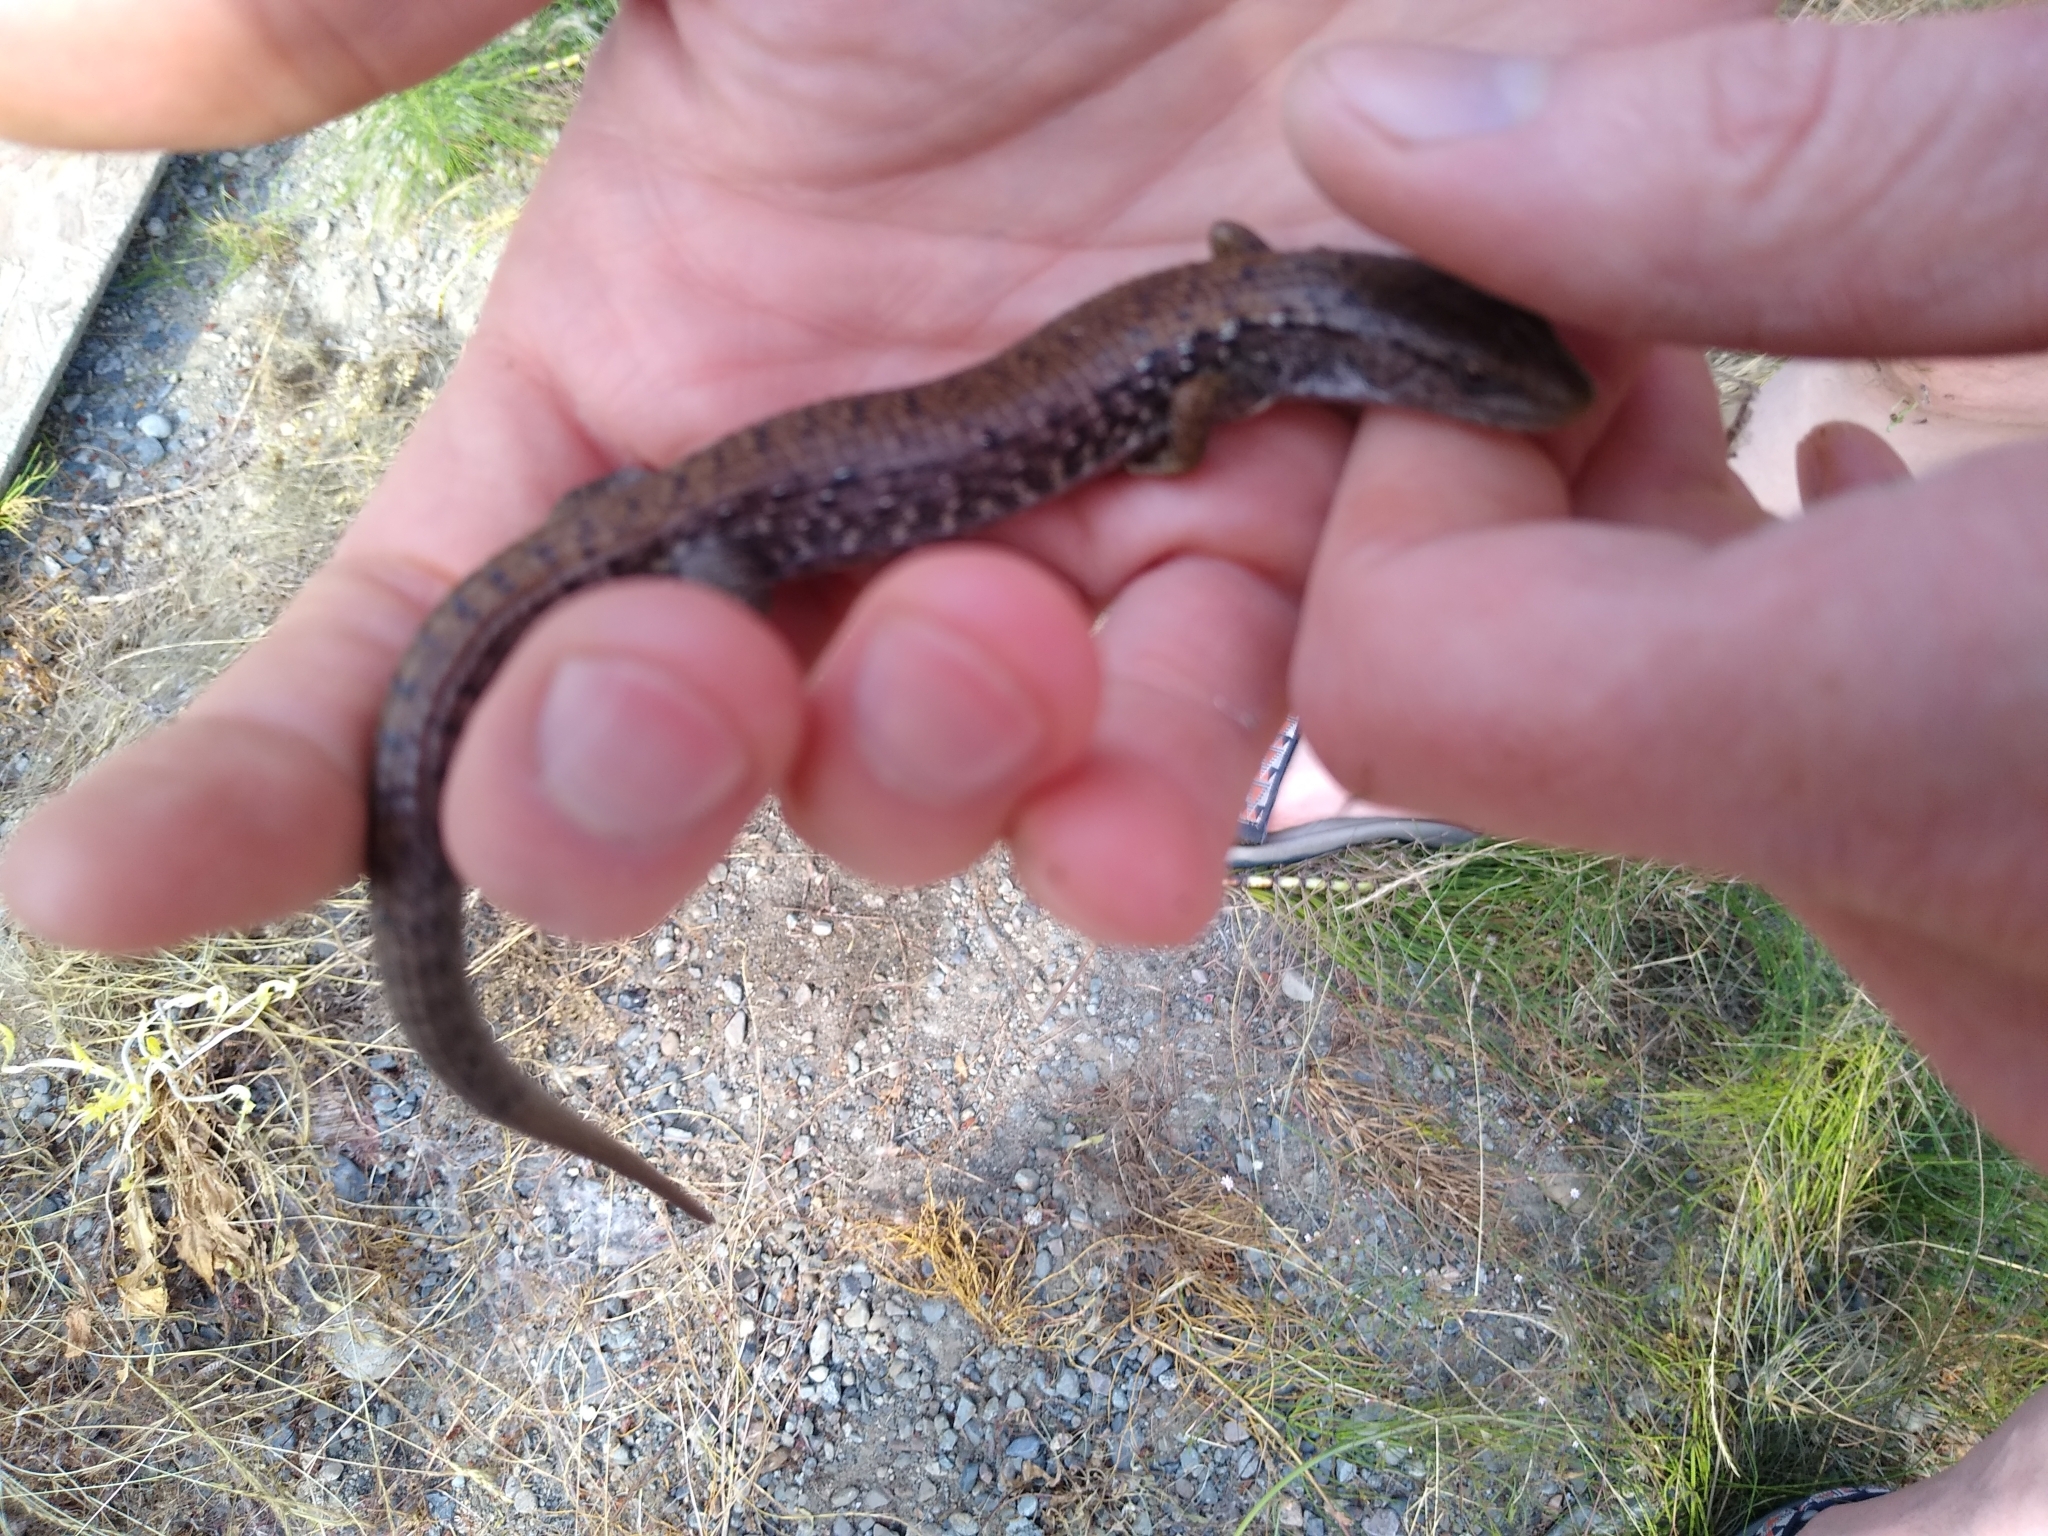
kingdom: Animalia
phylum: Chordata
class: Squamata
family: Anguidae
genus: Elgaria
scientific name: Elgaria coerulea
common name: Northern alligator lizard
